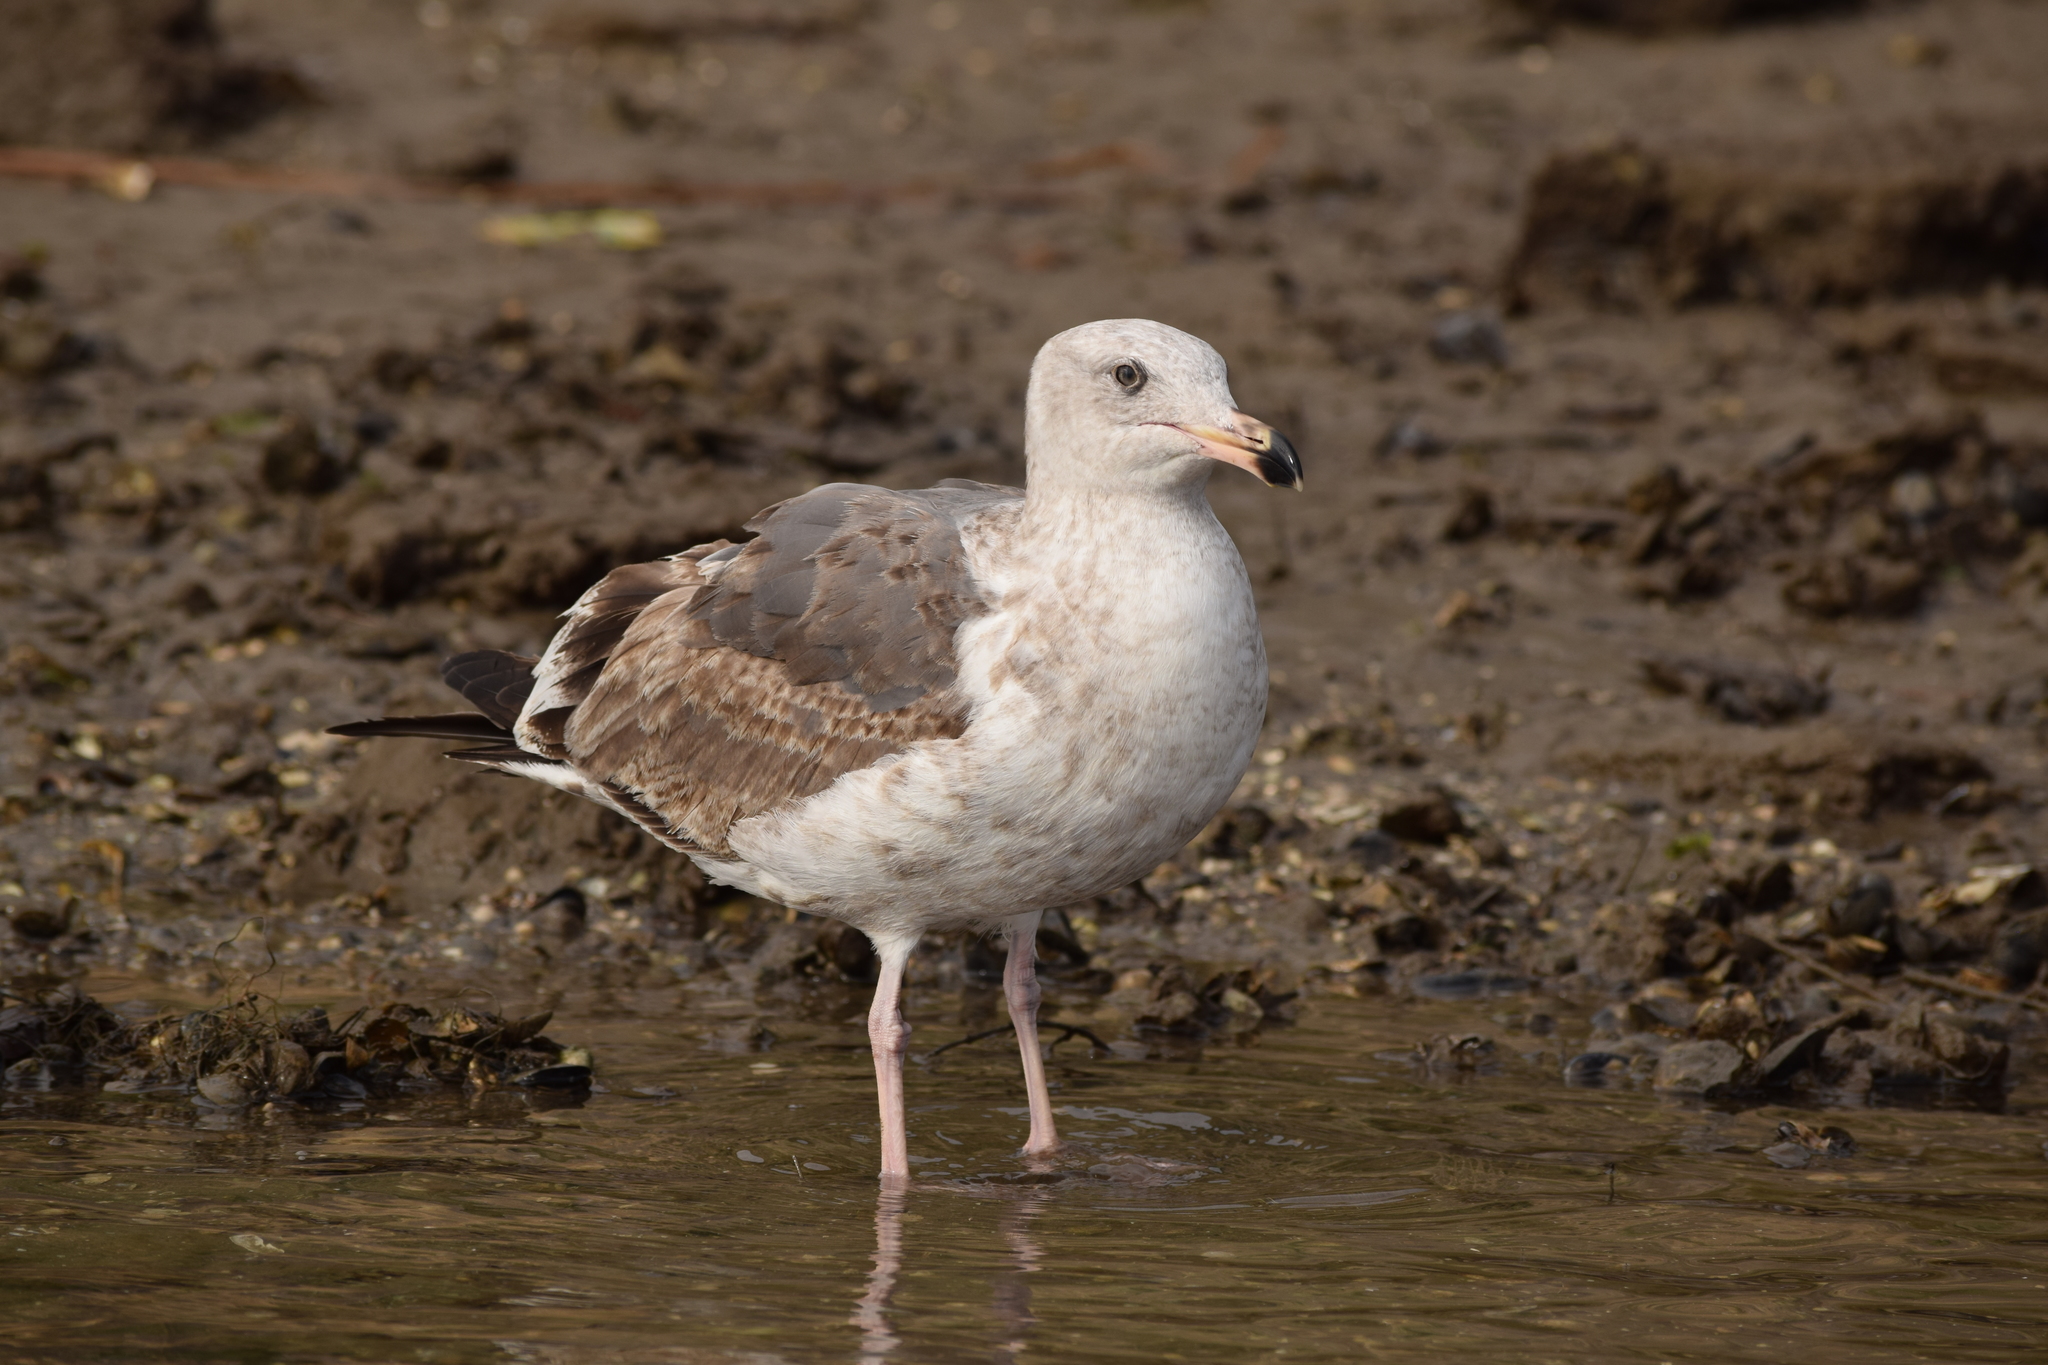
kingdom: Animalia
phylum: Chordata
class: Aves
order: Charadriiformes
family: Laridae
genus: Larus
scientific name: Larus occidentalis
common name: Western gull
